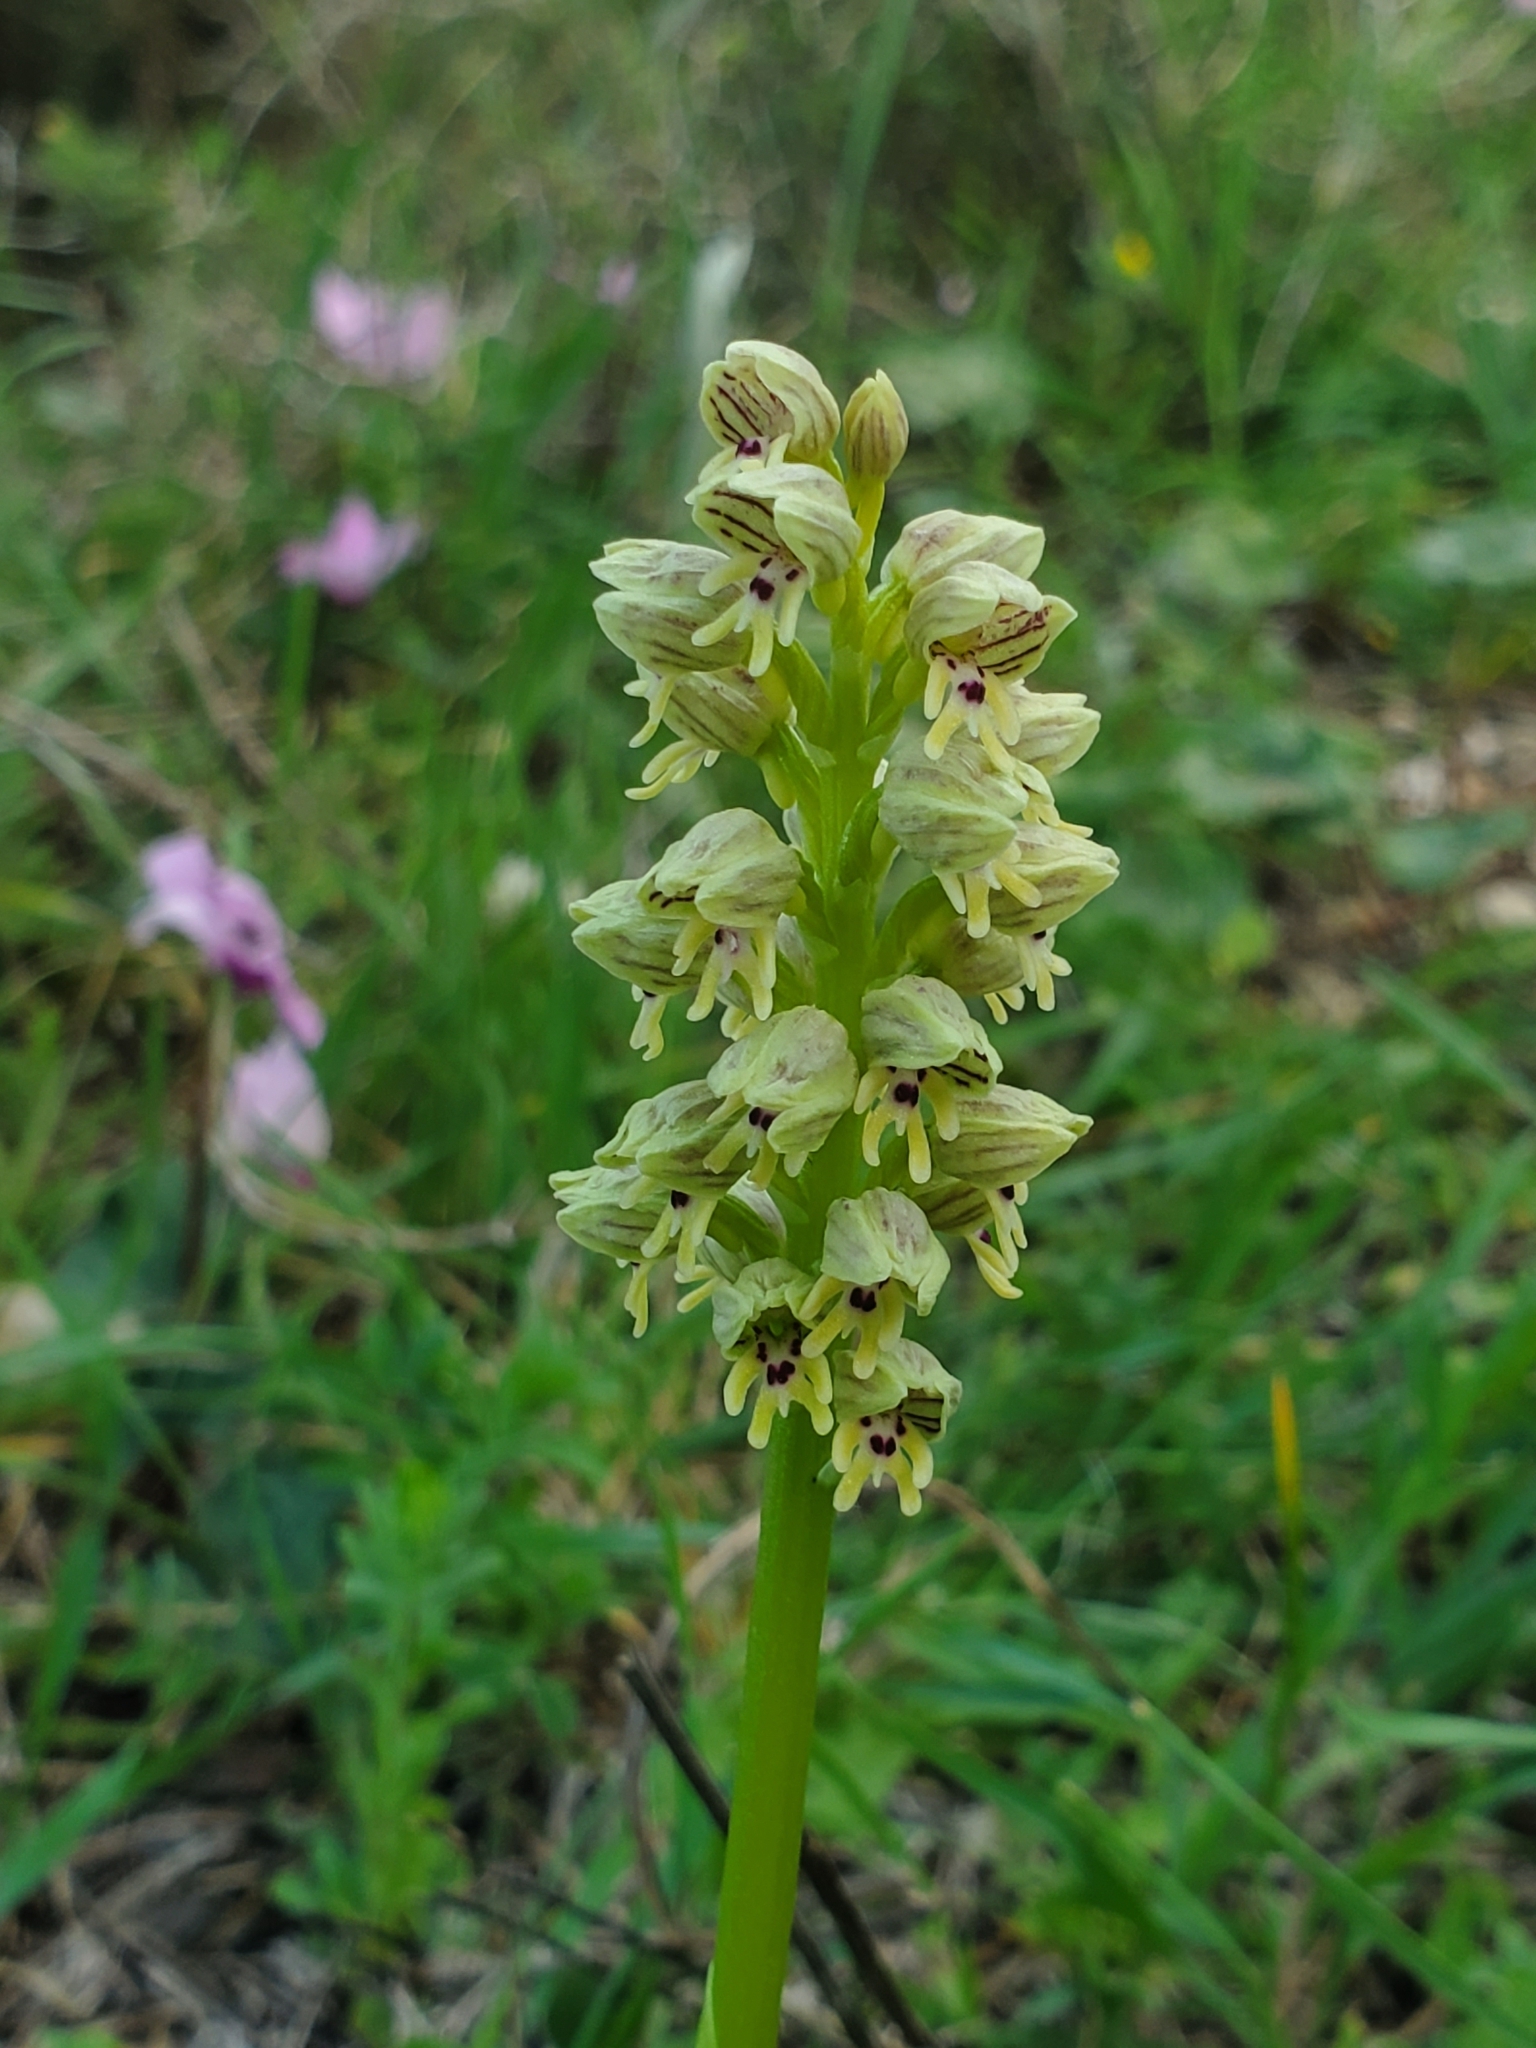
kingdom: Plantae
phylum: Tracheophyta
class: Liliopsida
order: Asparagales
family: Orchidaceae
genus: Orchis
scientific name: Orchis galilaea
